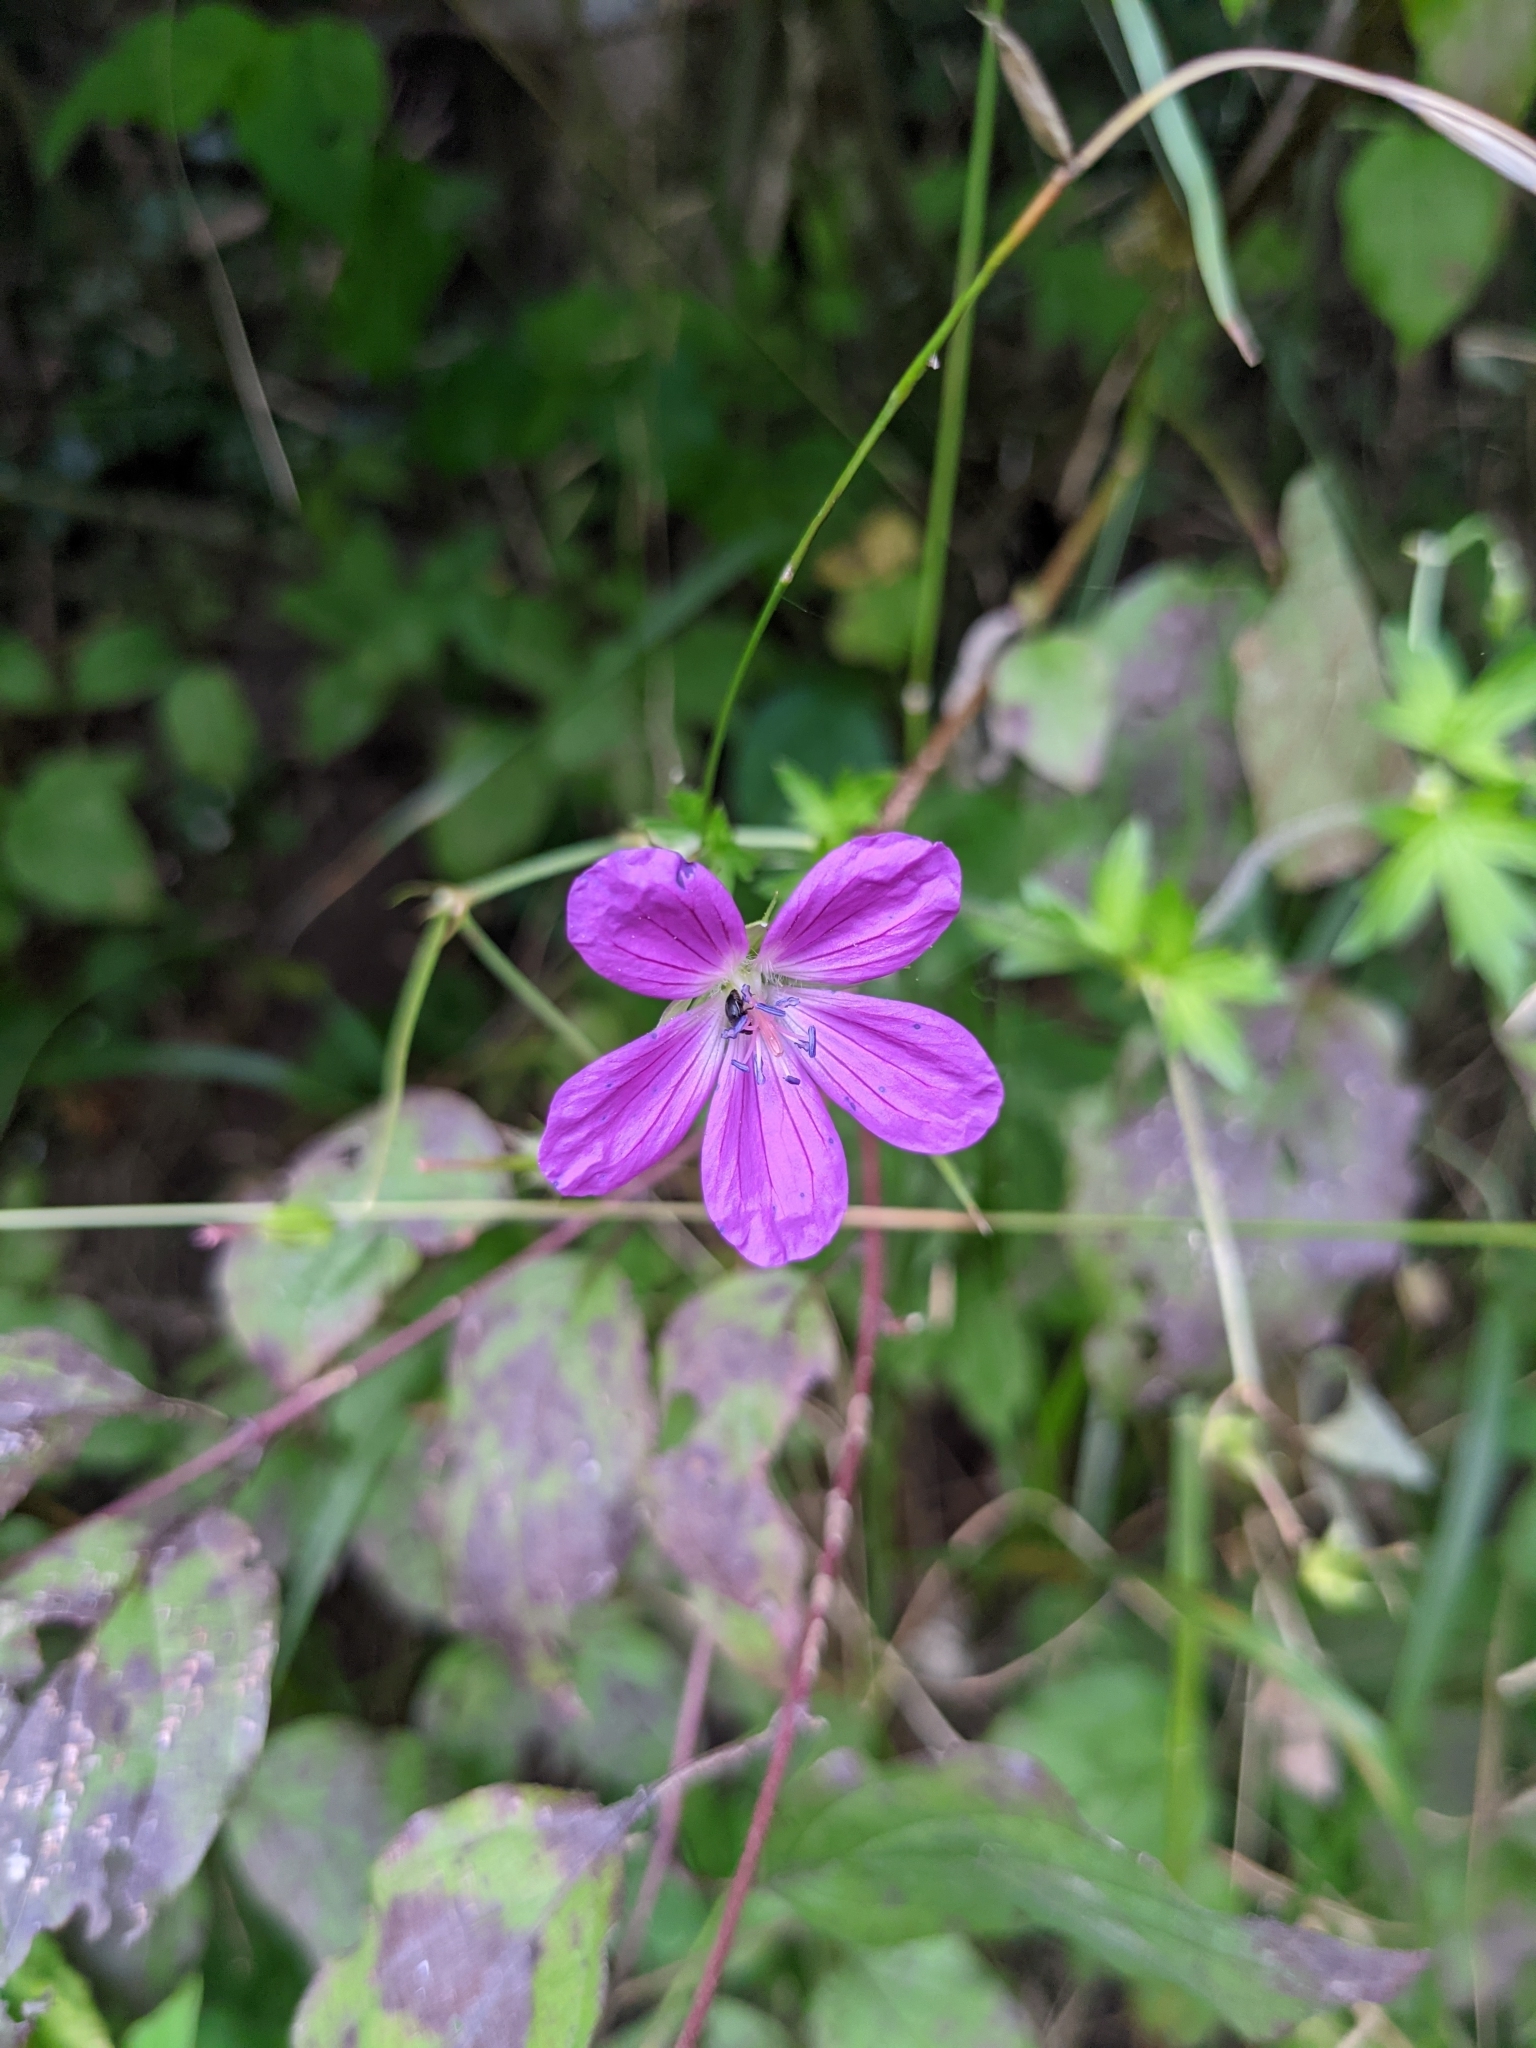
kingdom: Plantae
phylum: Tracheophyta
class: Magnoliopsida
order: Geraniales
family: Geraniaceae
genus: Geranium
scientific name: Geranium palustre
